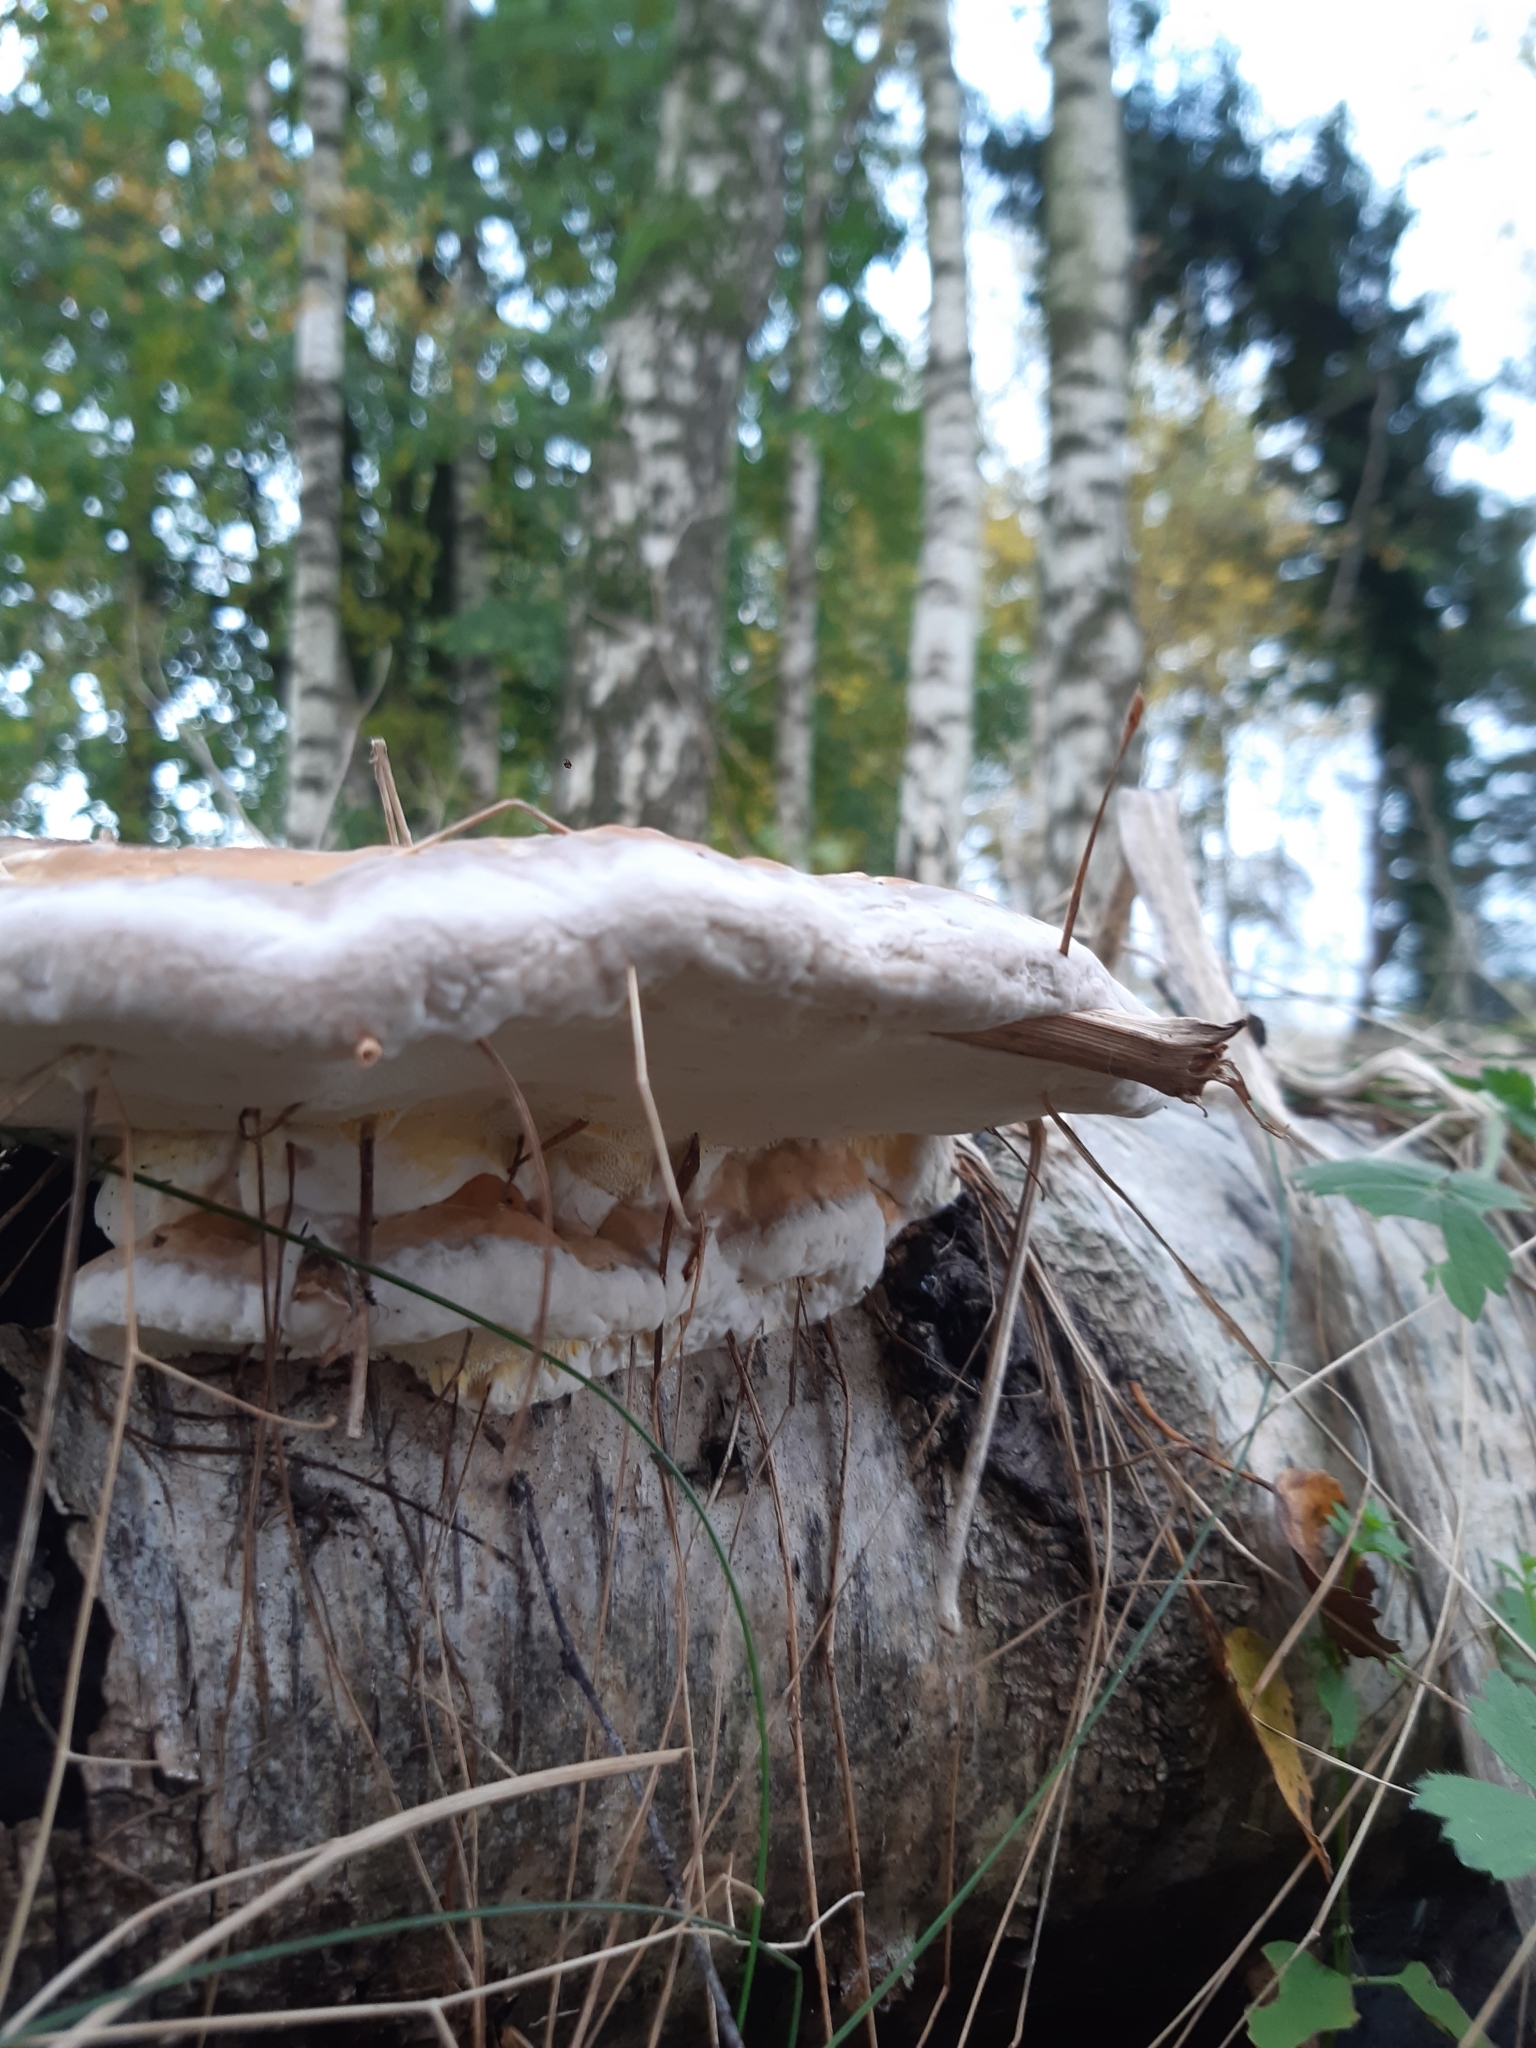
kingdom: Fungi
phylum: Basidiomycota
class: Agaricomycetes
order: Polyporales
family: Fomitopsidaceae
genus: Fomitopsis
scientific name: Fomitopsis pinicola
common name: Red-belted bracket
